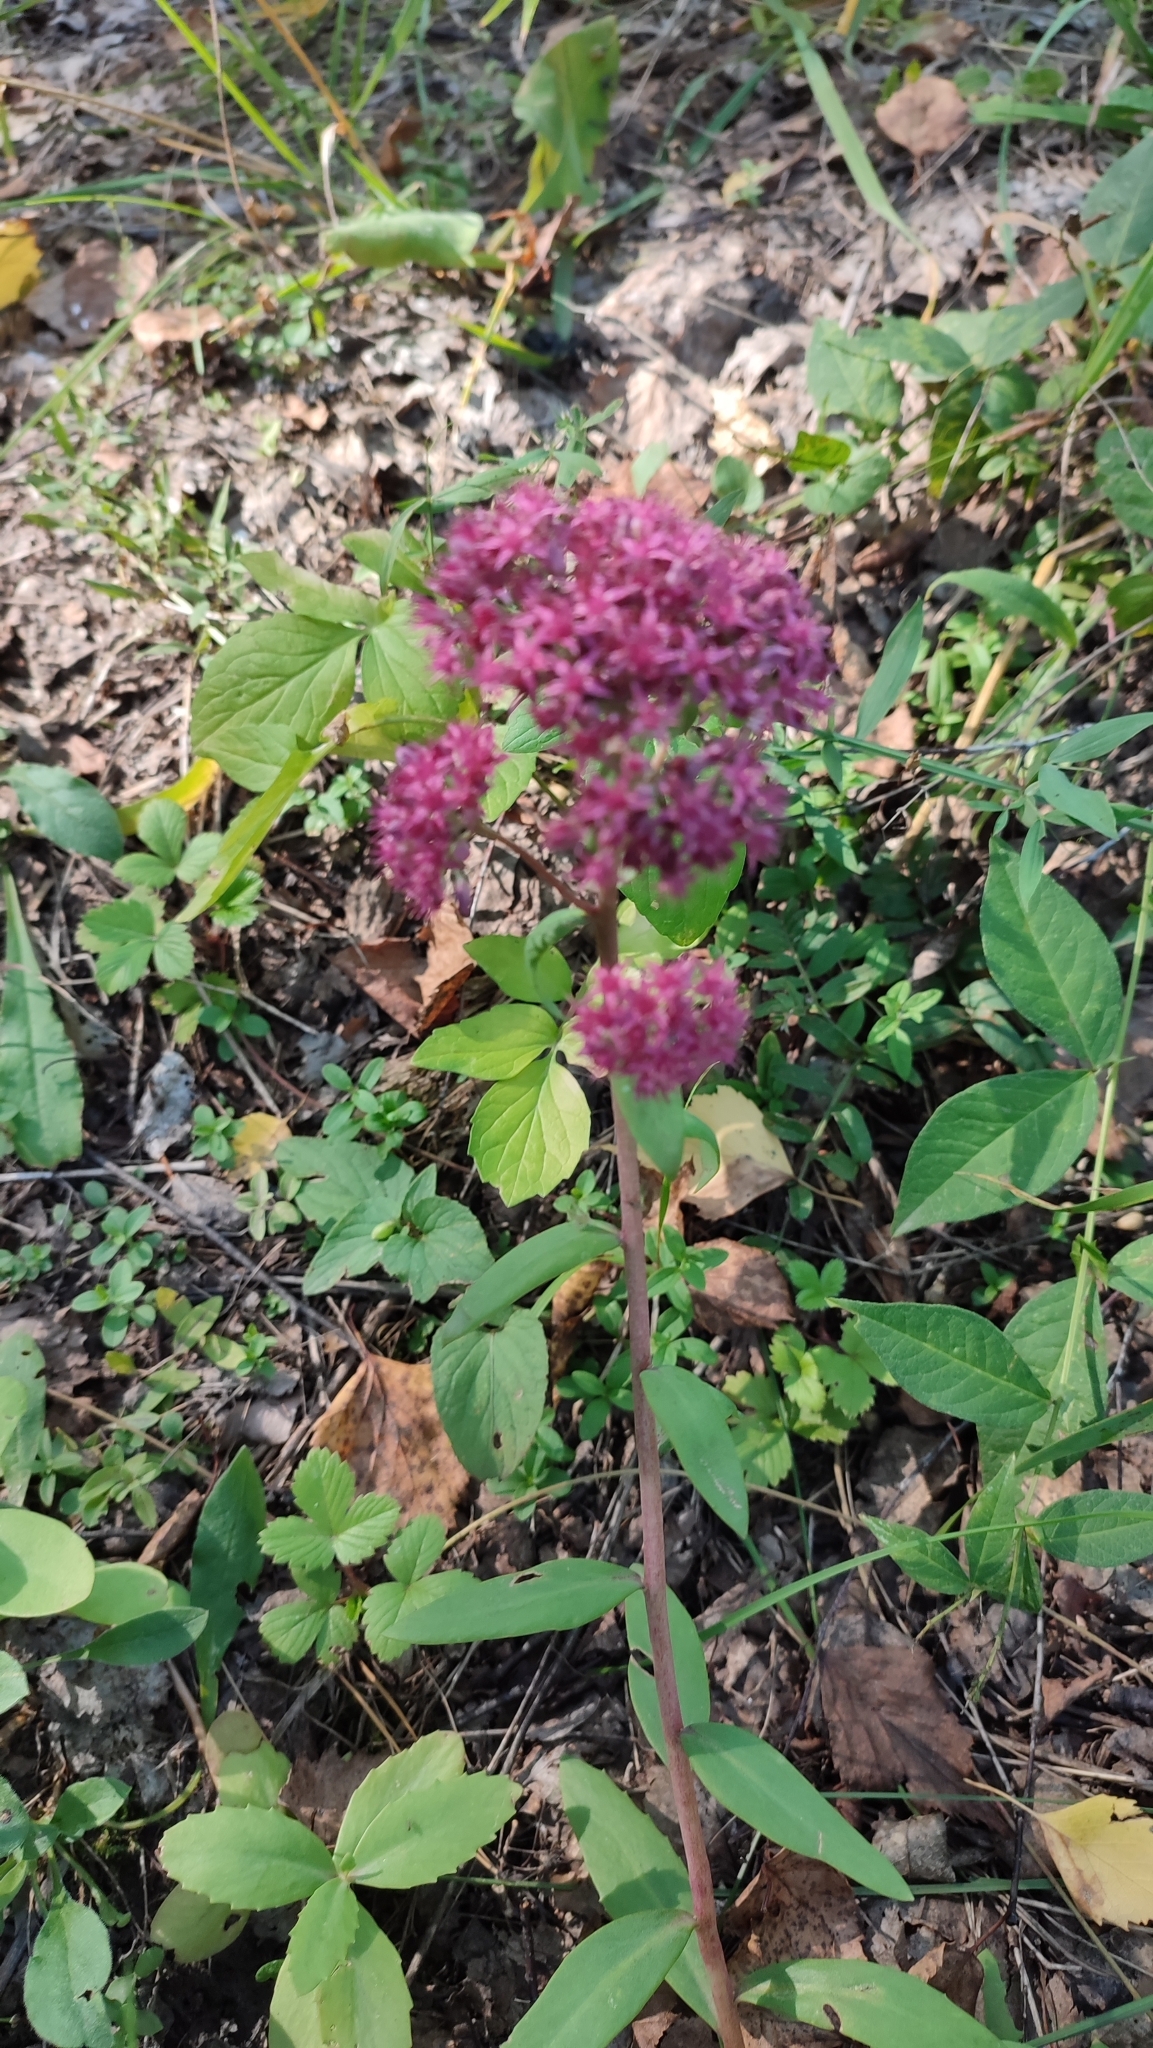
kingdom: Plantae
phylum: Tracheophyta
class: Magnoliopsida
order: Saxifragales
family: Crassulaceae
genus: Hylotelephium
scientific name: Hylotelephium telephium
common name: Live-forever
